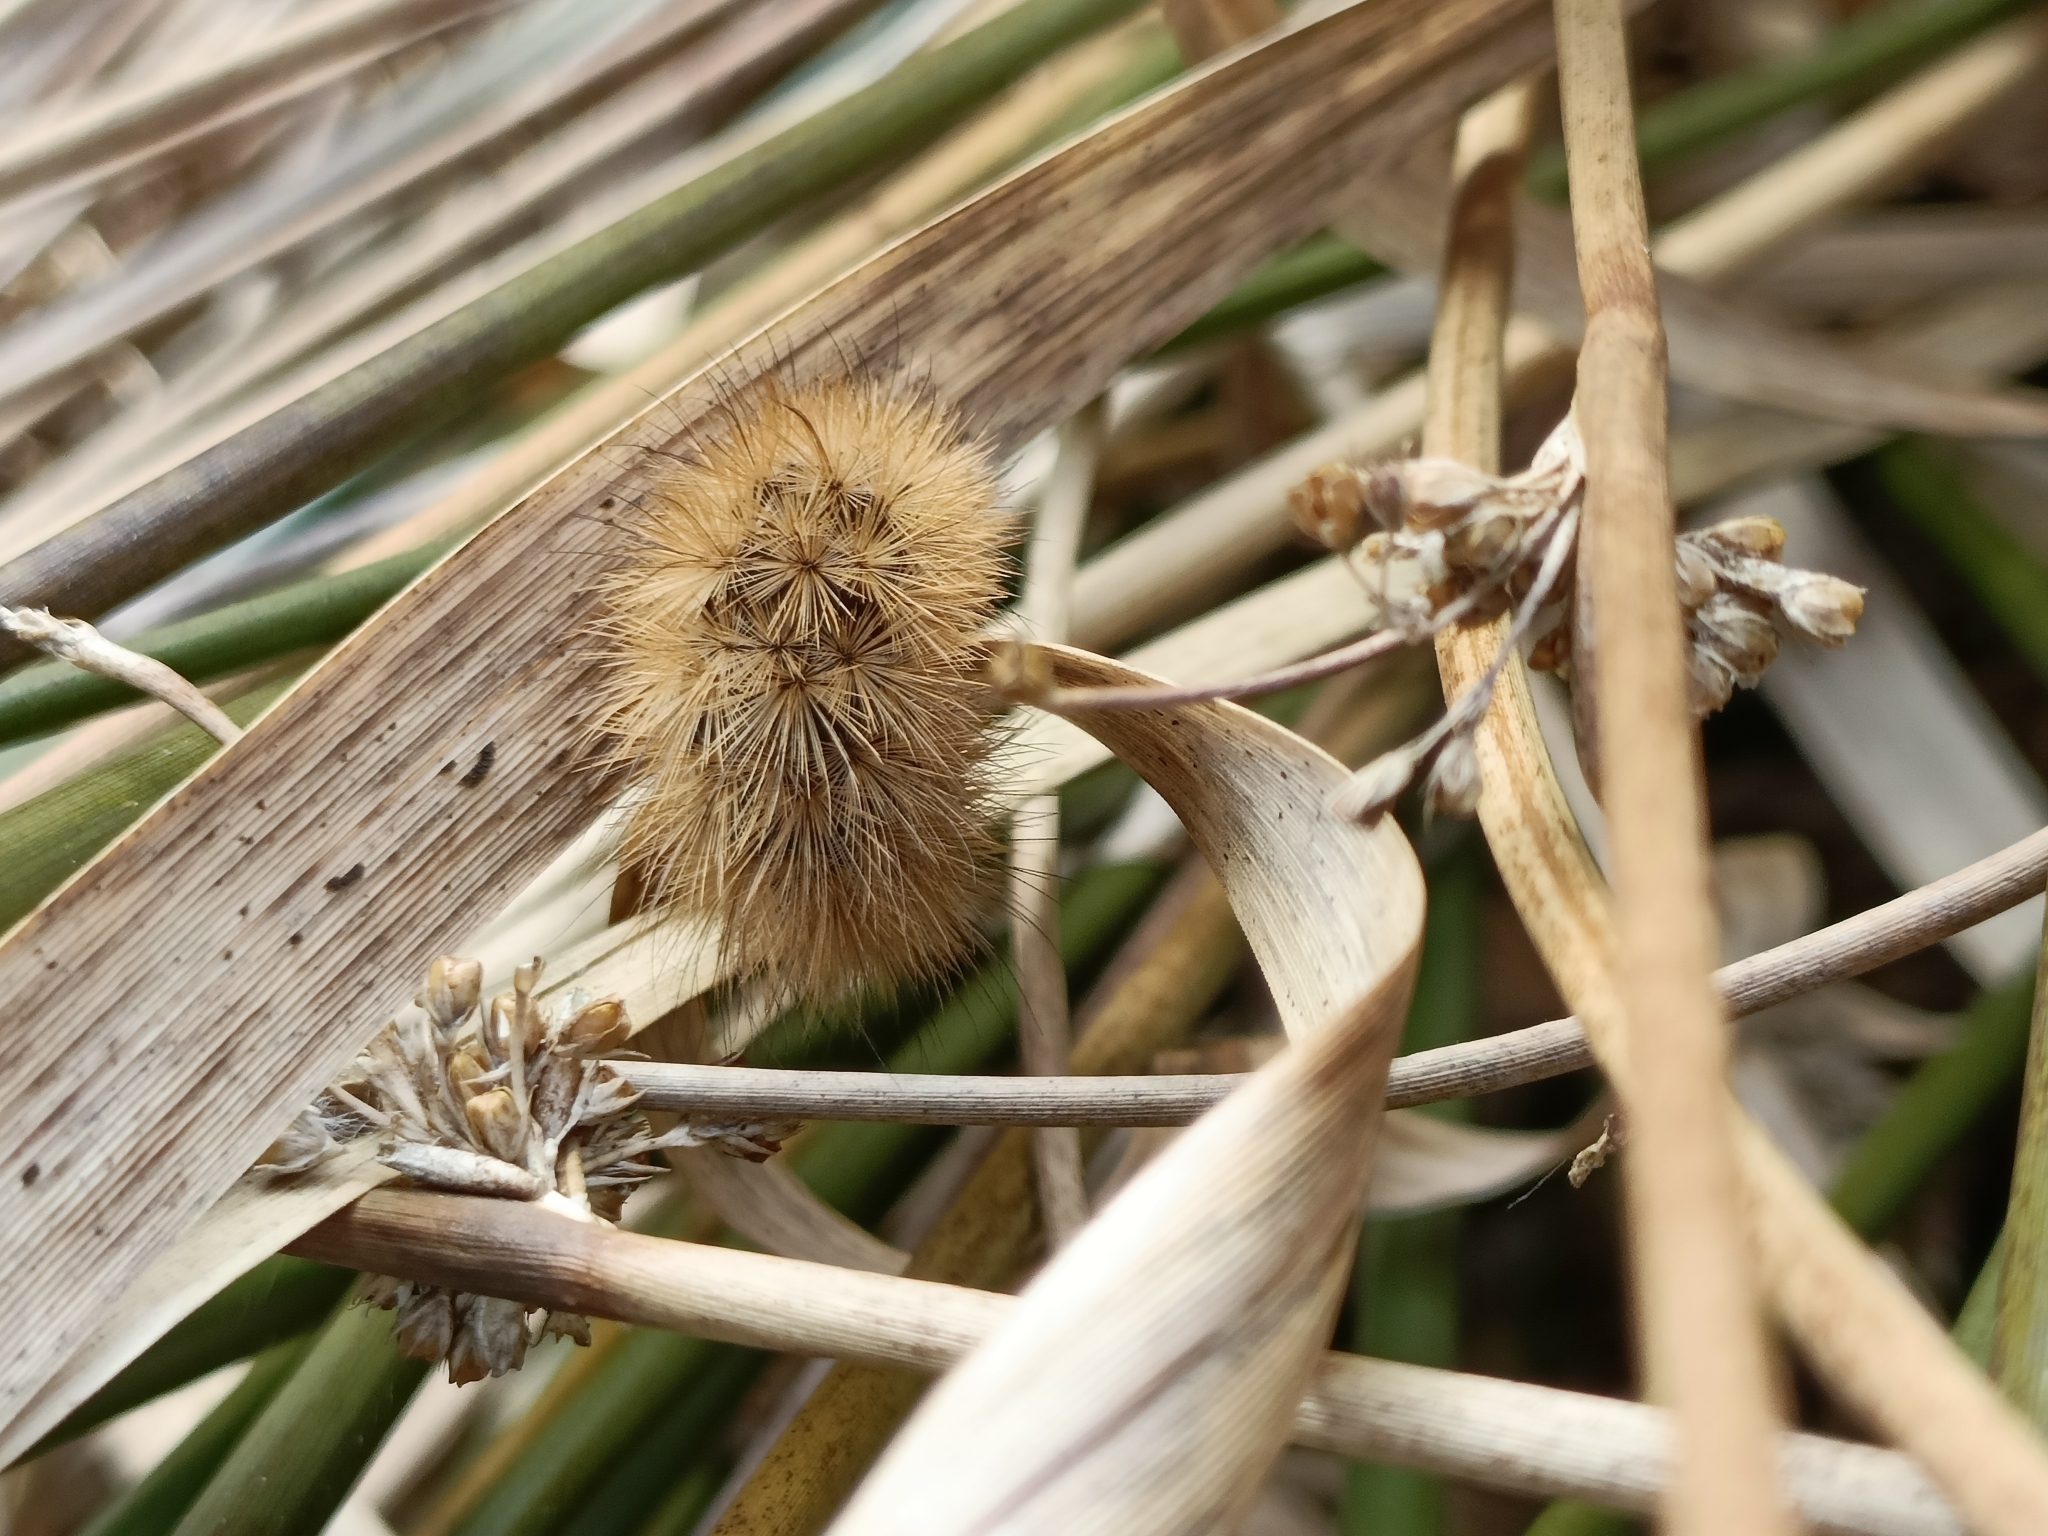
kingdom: Animalia
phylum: Arthropoda
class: Insecta
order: Lepidoptera
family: Erebidae
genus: Phragmatobia
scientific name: Phragmatobia fuliginosa
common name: Ruby tiger
